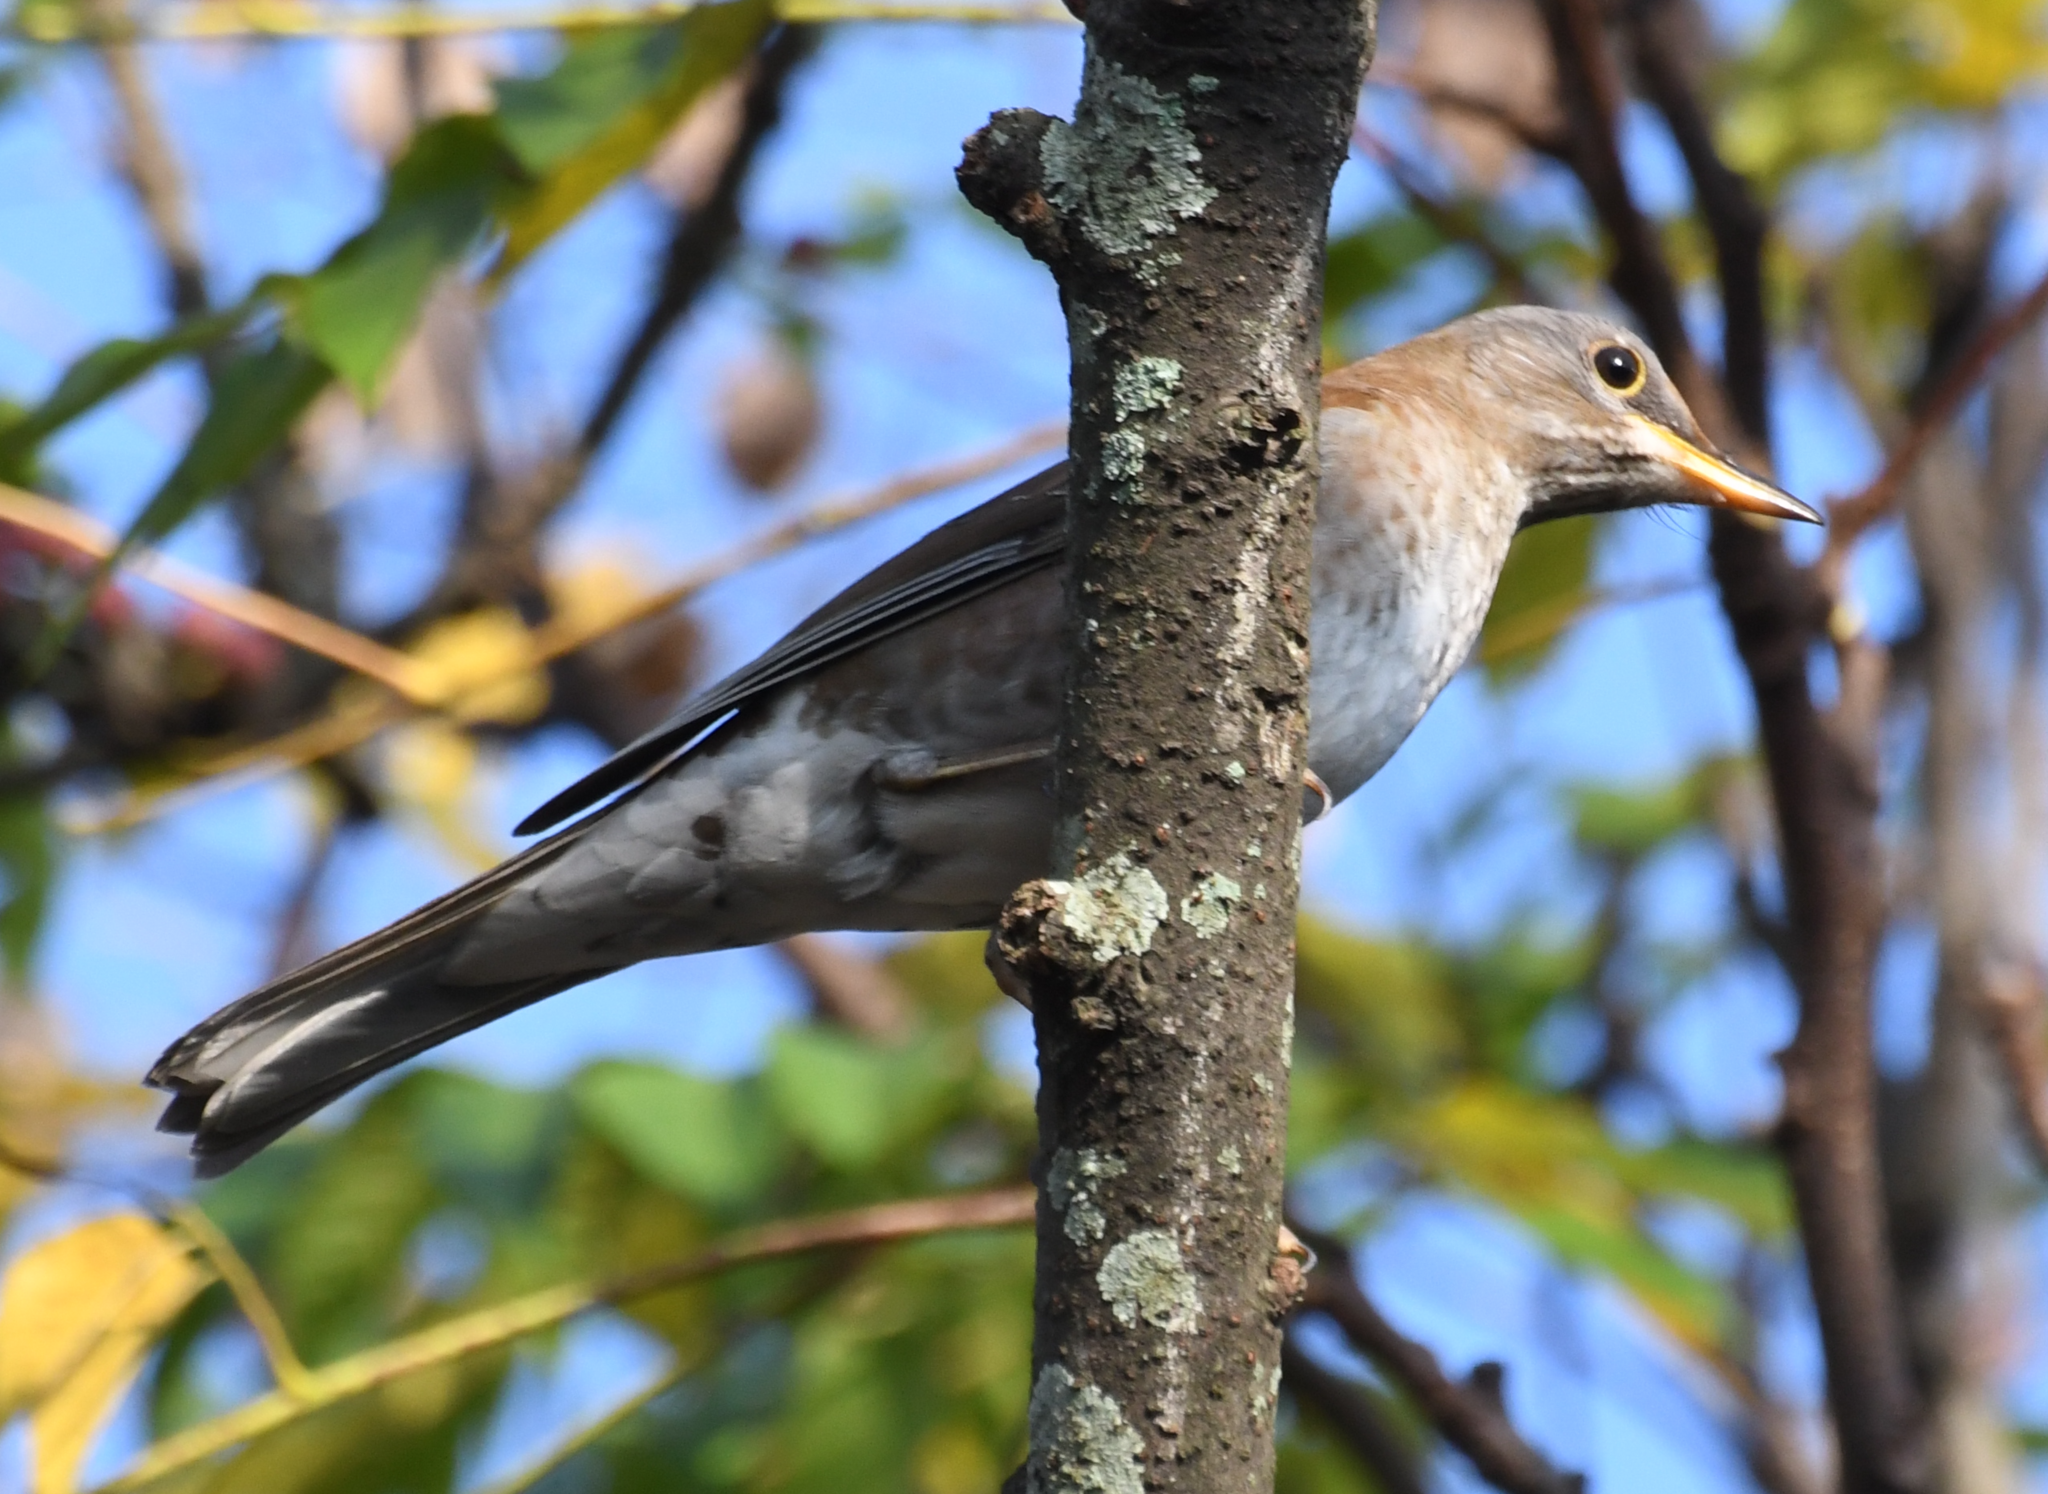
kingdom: Animalia
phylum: Chordata
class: Aves
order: Passeriformes
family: Turdidae
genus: Turdus
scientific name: Turdus pallidus
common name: Pale thrush
